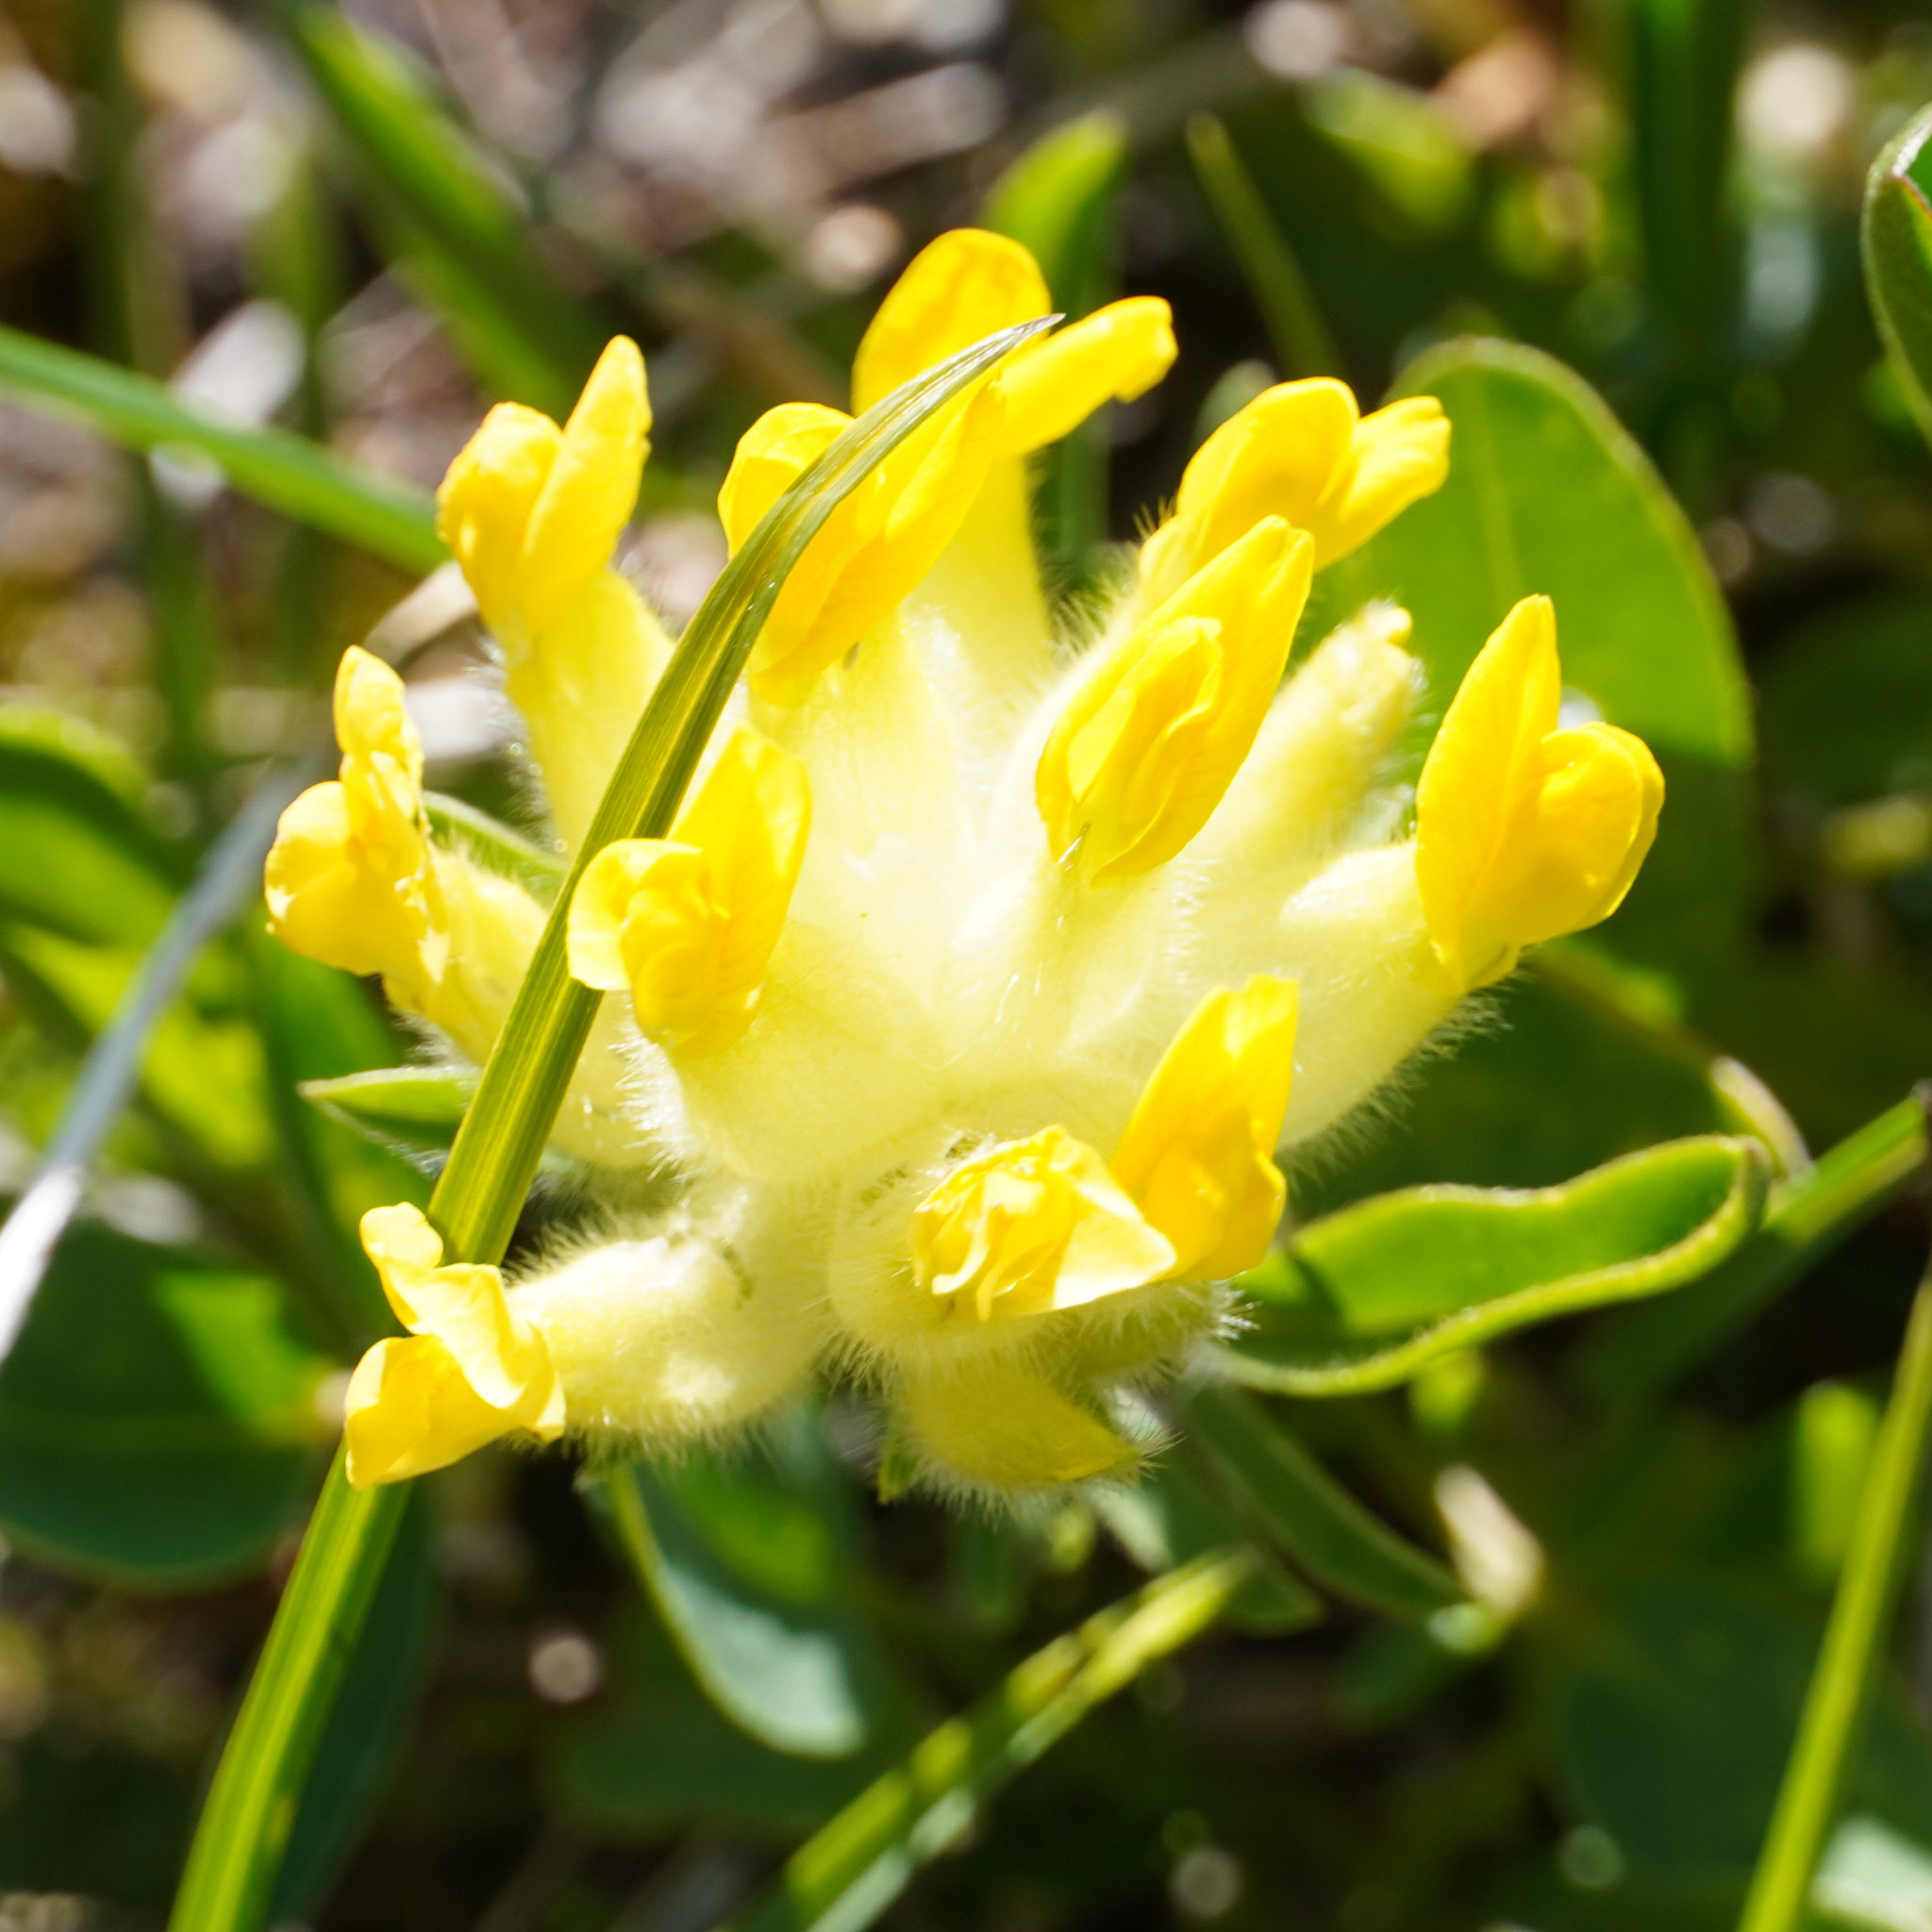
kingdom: Plantae
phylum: Tracheophyta
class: Magnoliopsida
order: Fabales
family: Fabaceae
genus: Anthyllis
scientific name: Anthyllis vulneraria
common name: Kidney vetch
